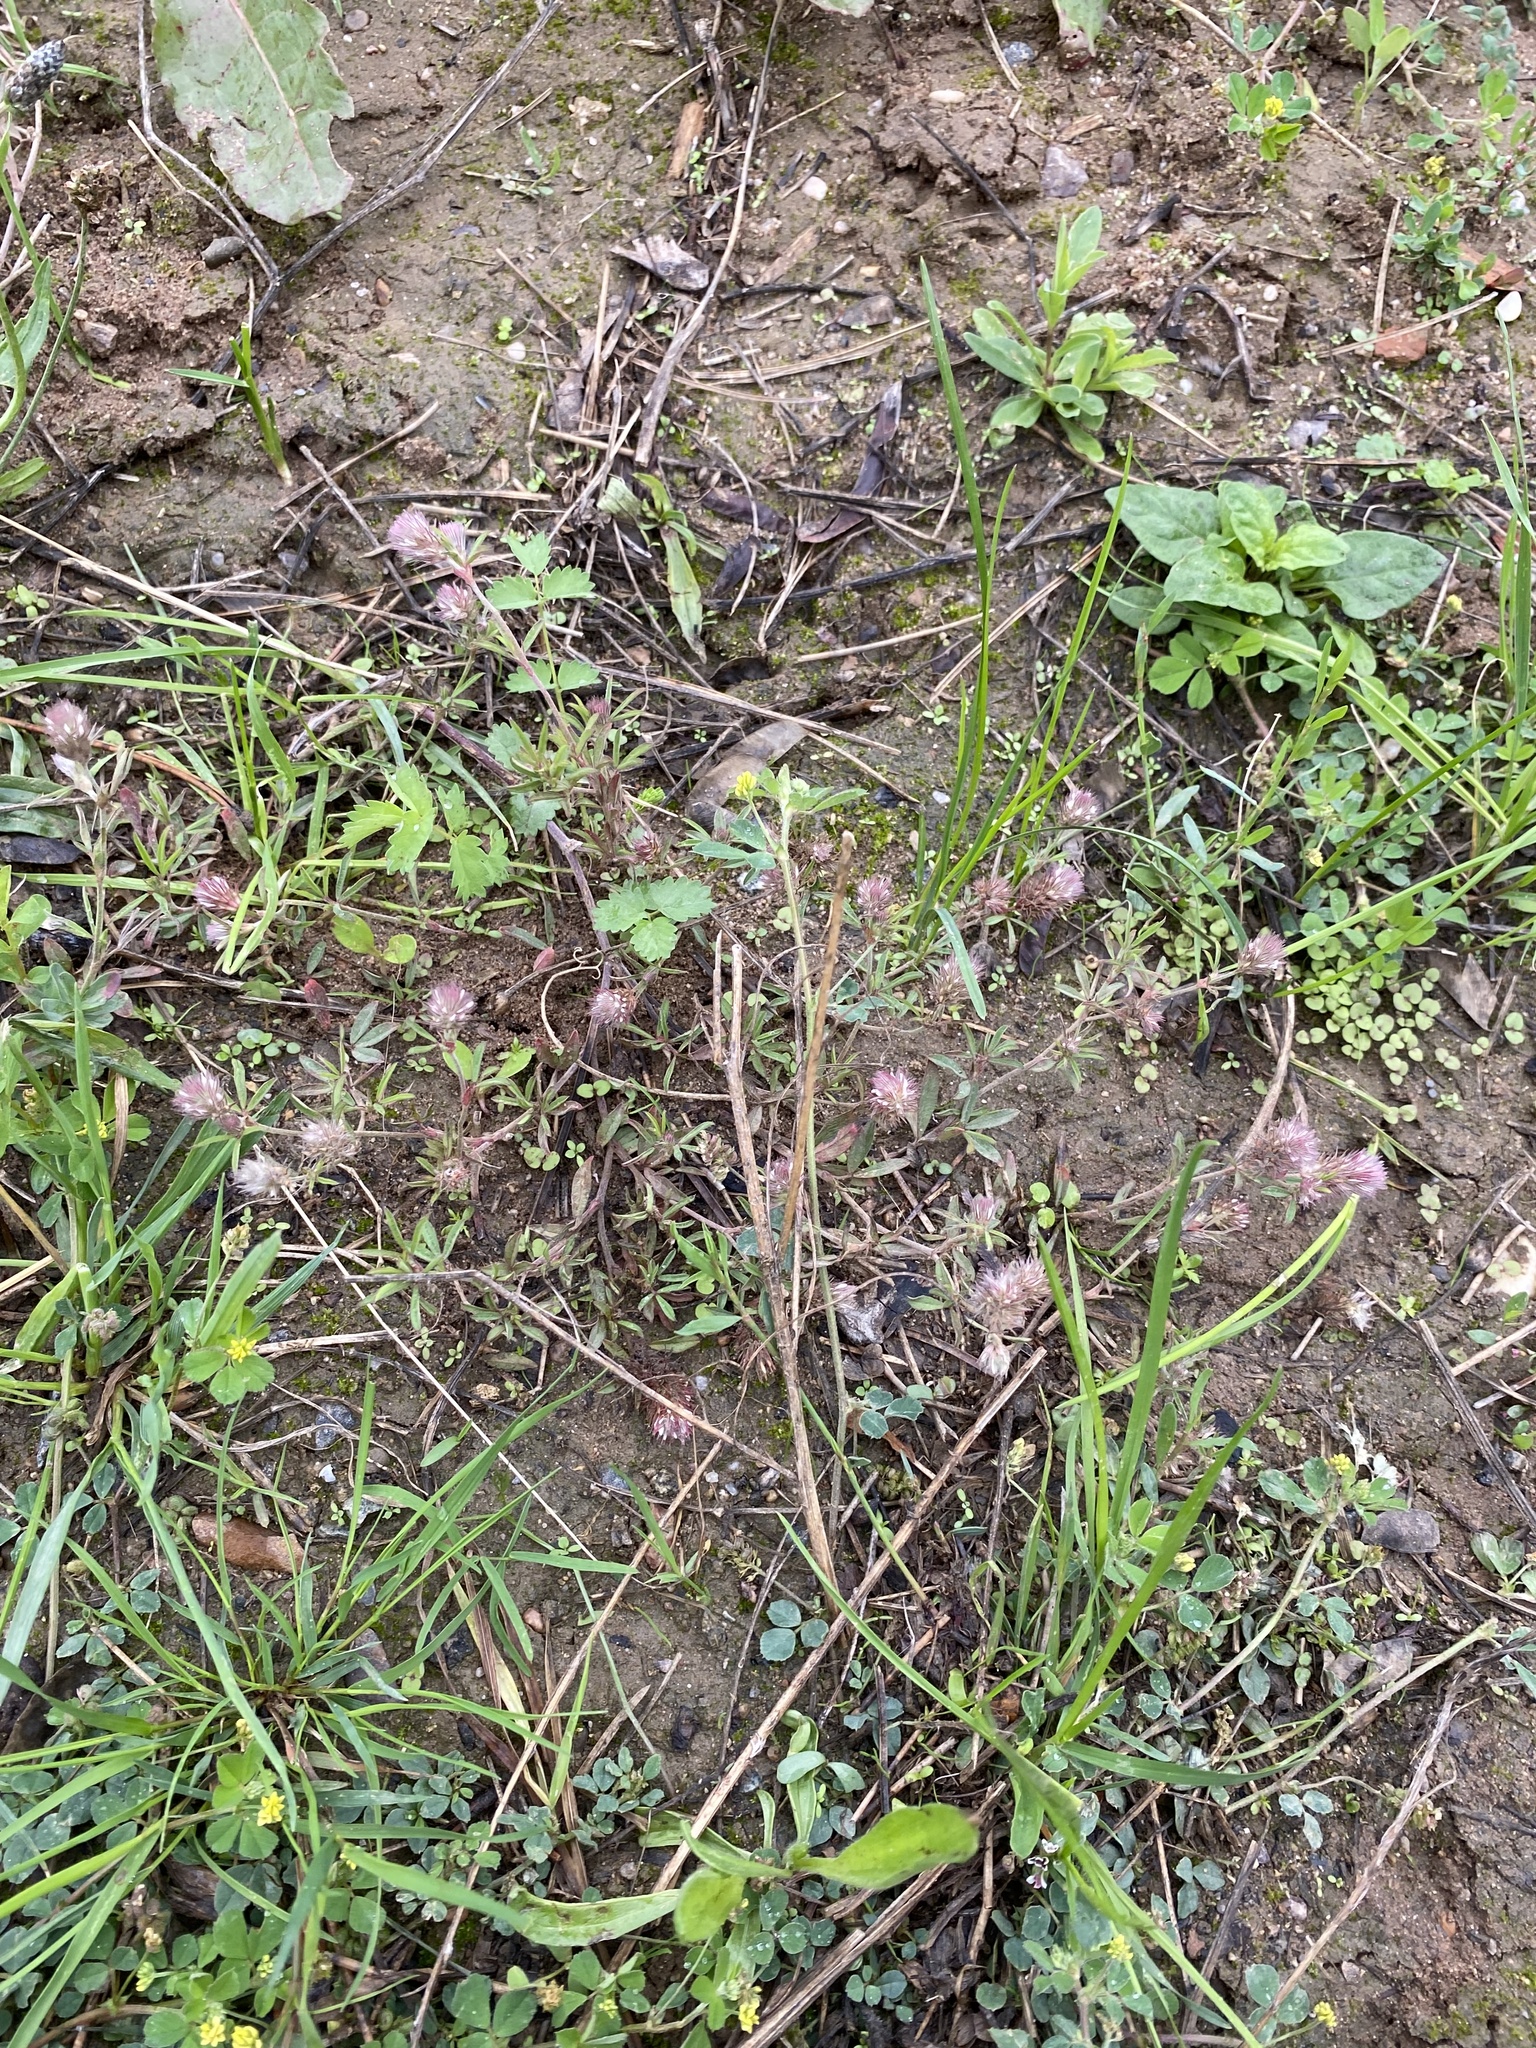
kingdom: Plantae
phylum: Tracheophyta
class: Magnoliopsida
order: Fabales
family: Fabaceae
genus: Trifolium
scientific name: Trifolium arvense
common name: Hare's-foot clover
